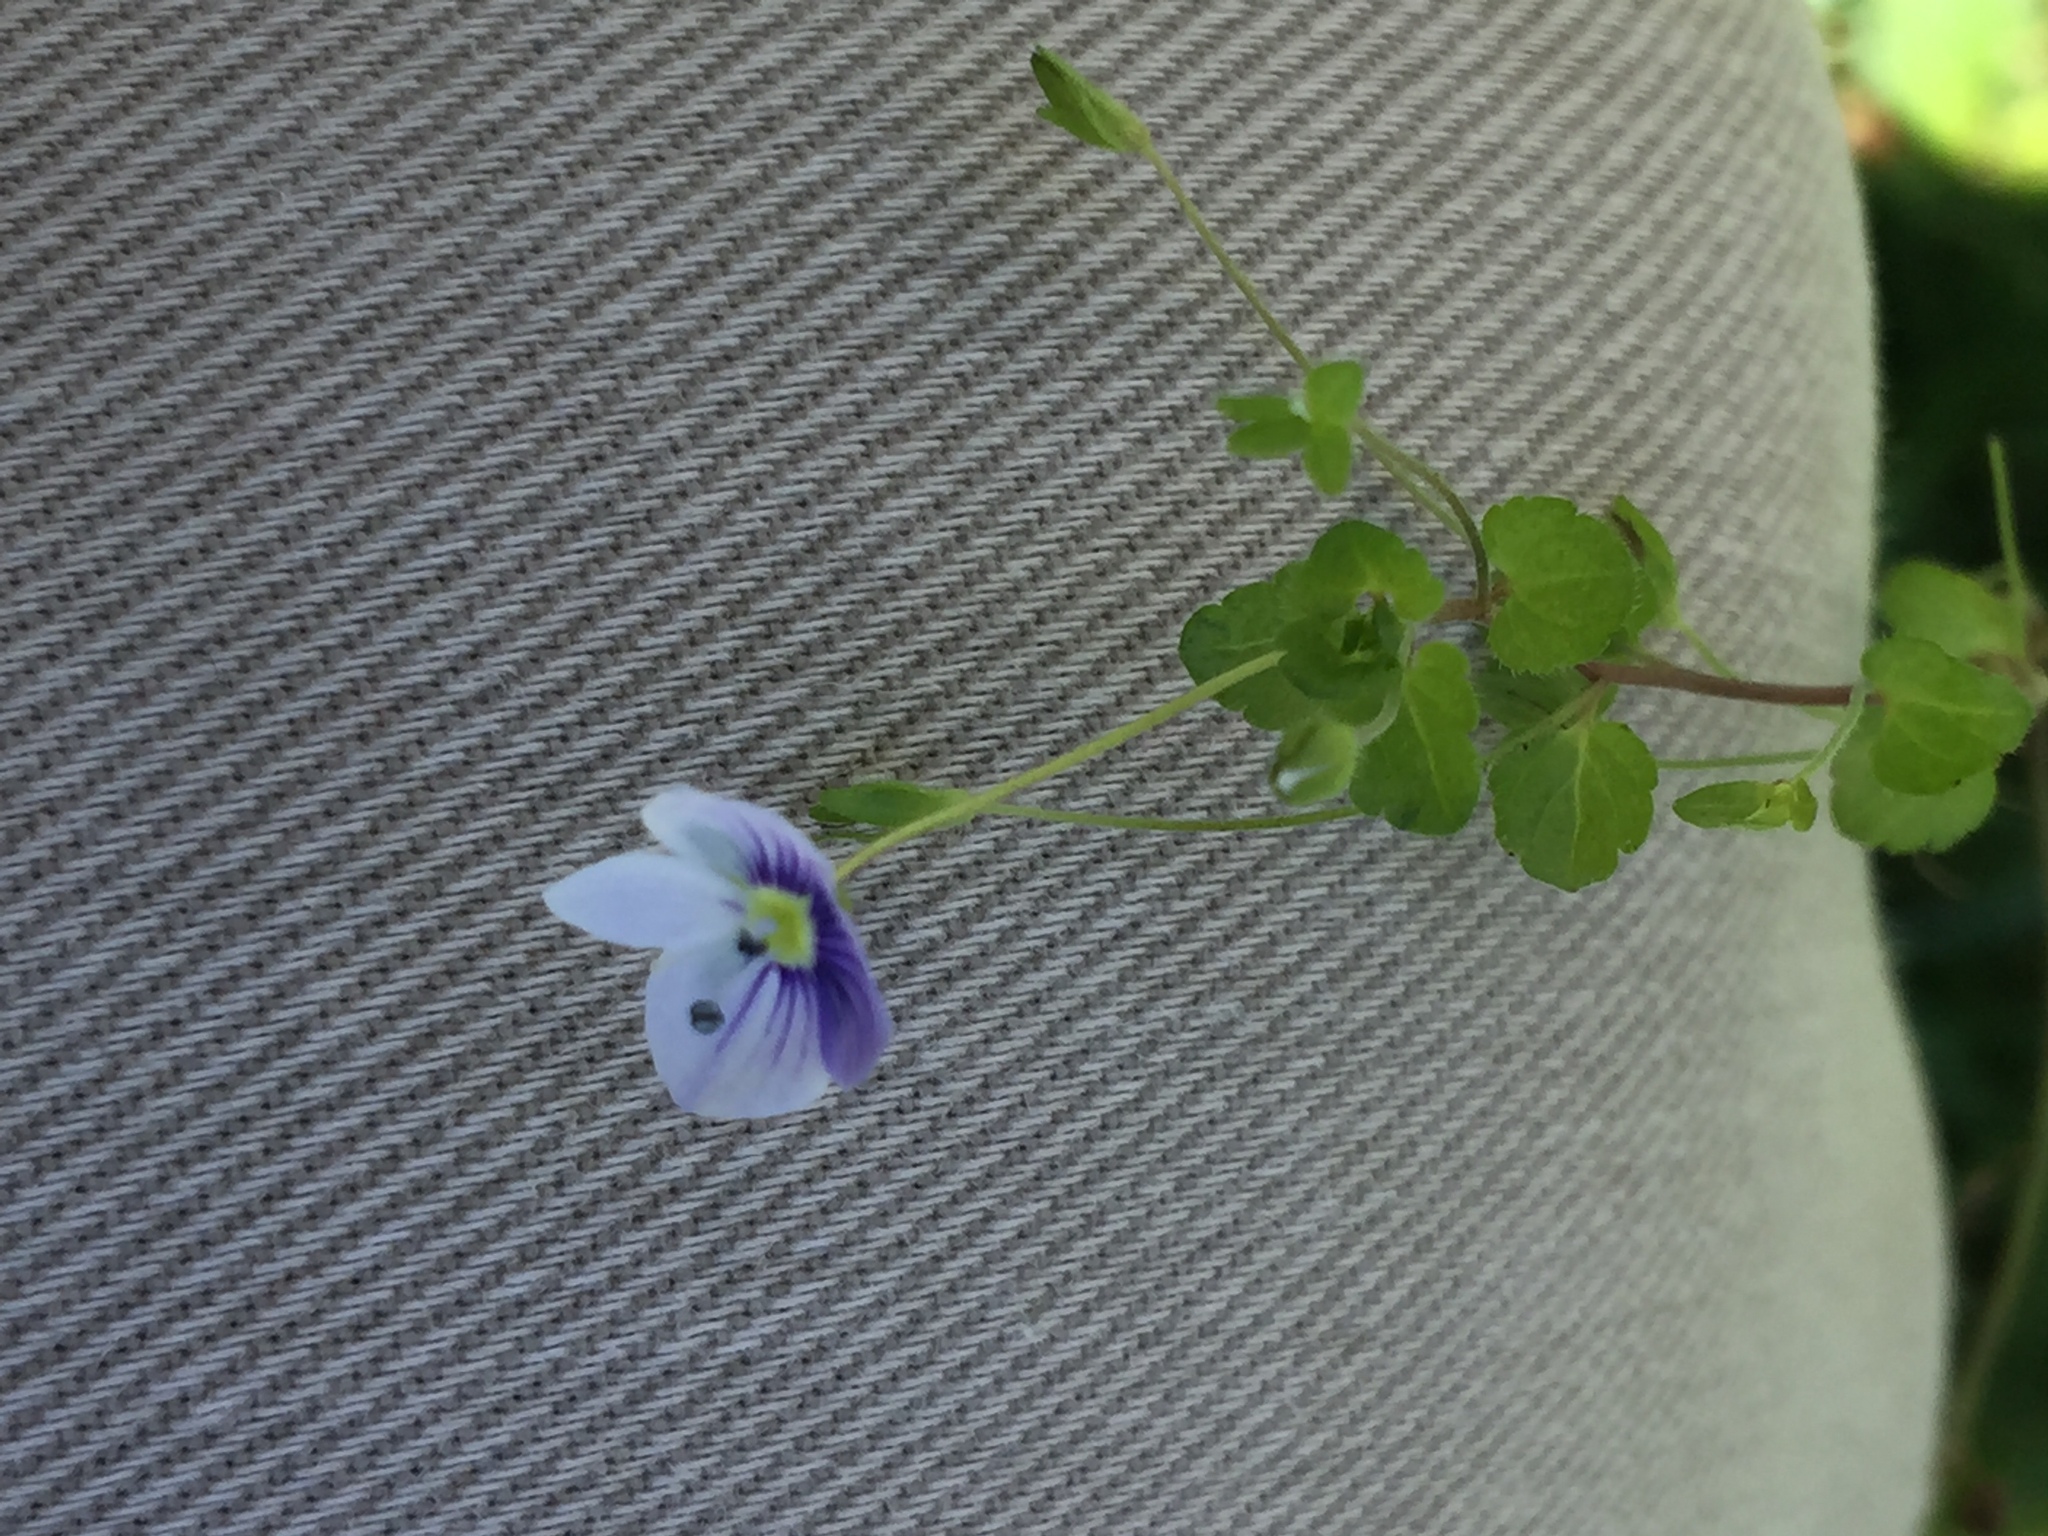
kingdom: Plantae
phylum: Tracheophyta
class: Magnoliopsida
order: Lamiales
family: Plantaginaceae
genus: Veronica
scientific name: Veronica filiformis
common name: Slender speedwell
